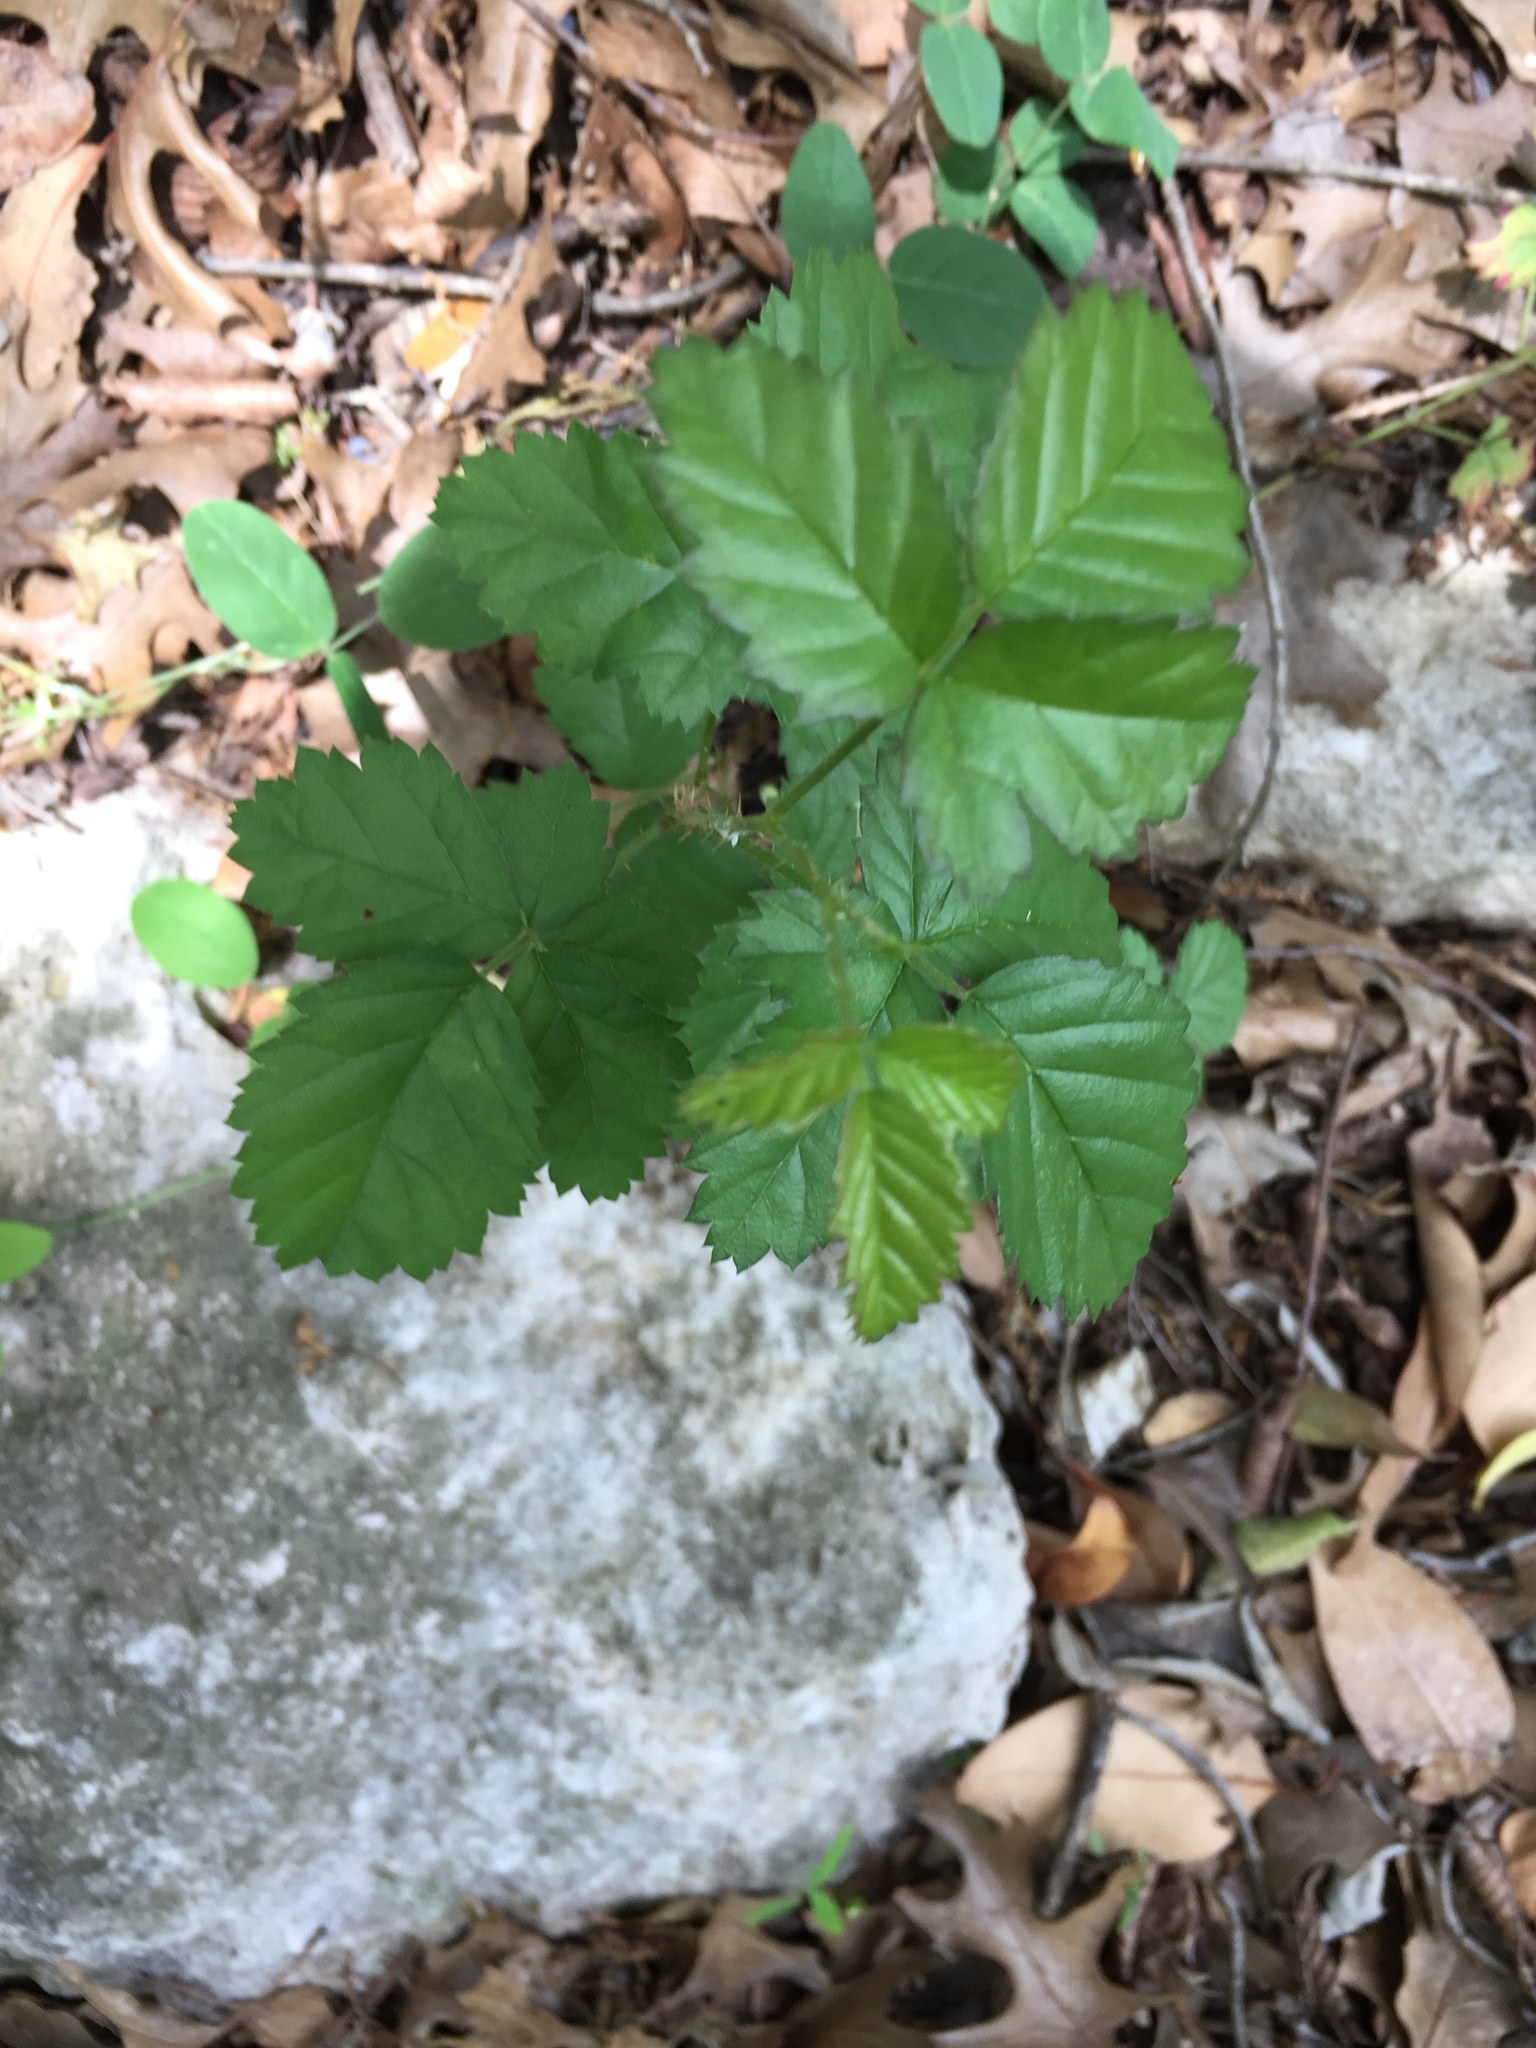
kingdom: Plantae
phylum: Tracheophyta
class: Magnoliopsida
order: Rosales
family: Rosaceae
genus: Rubus
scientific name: Rubus trivialis
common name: Southern dewberry
